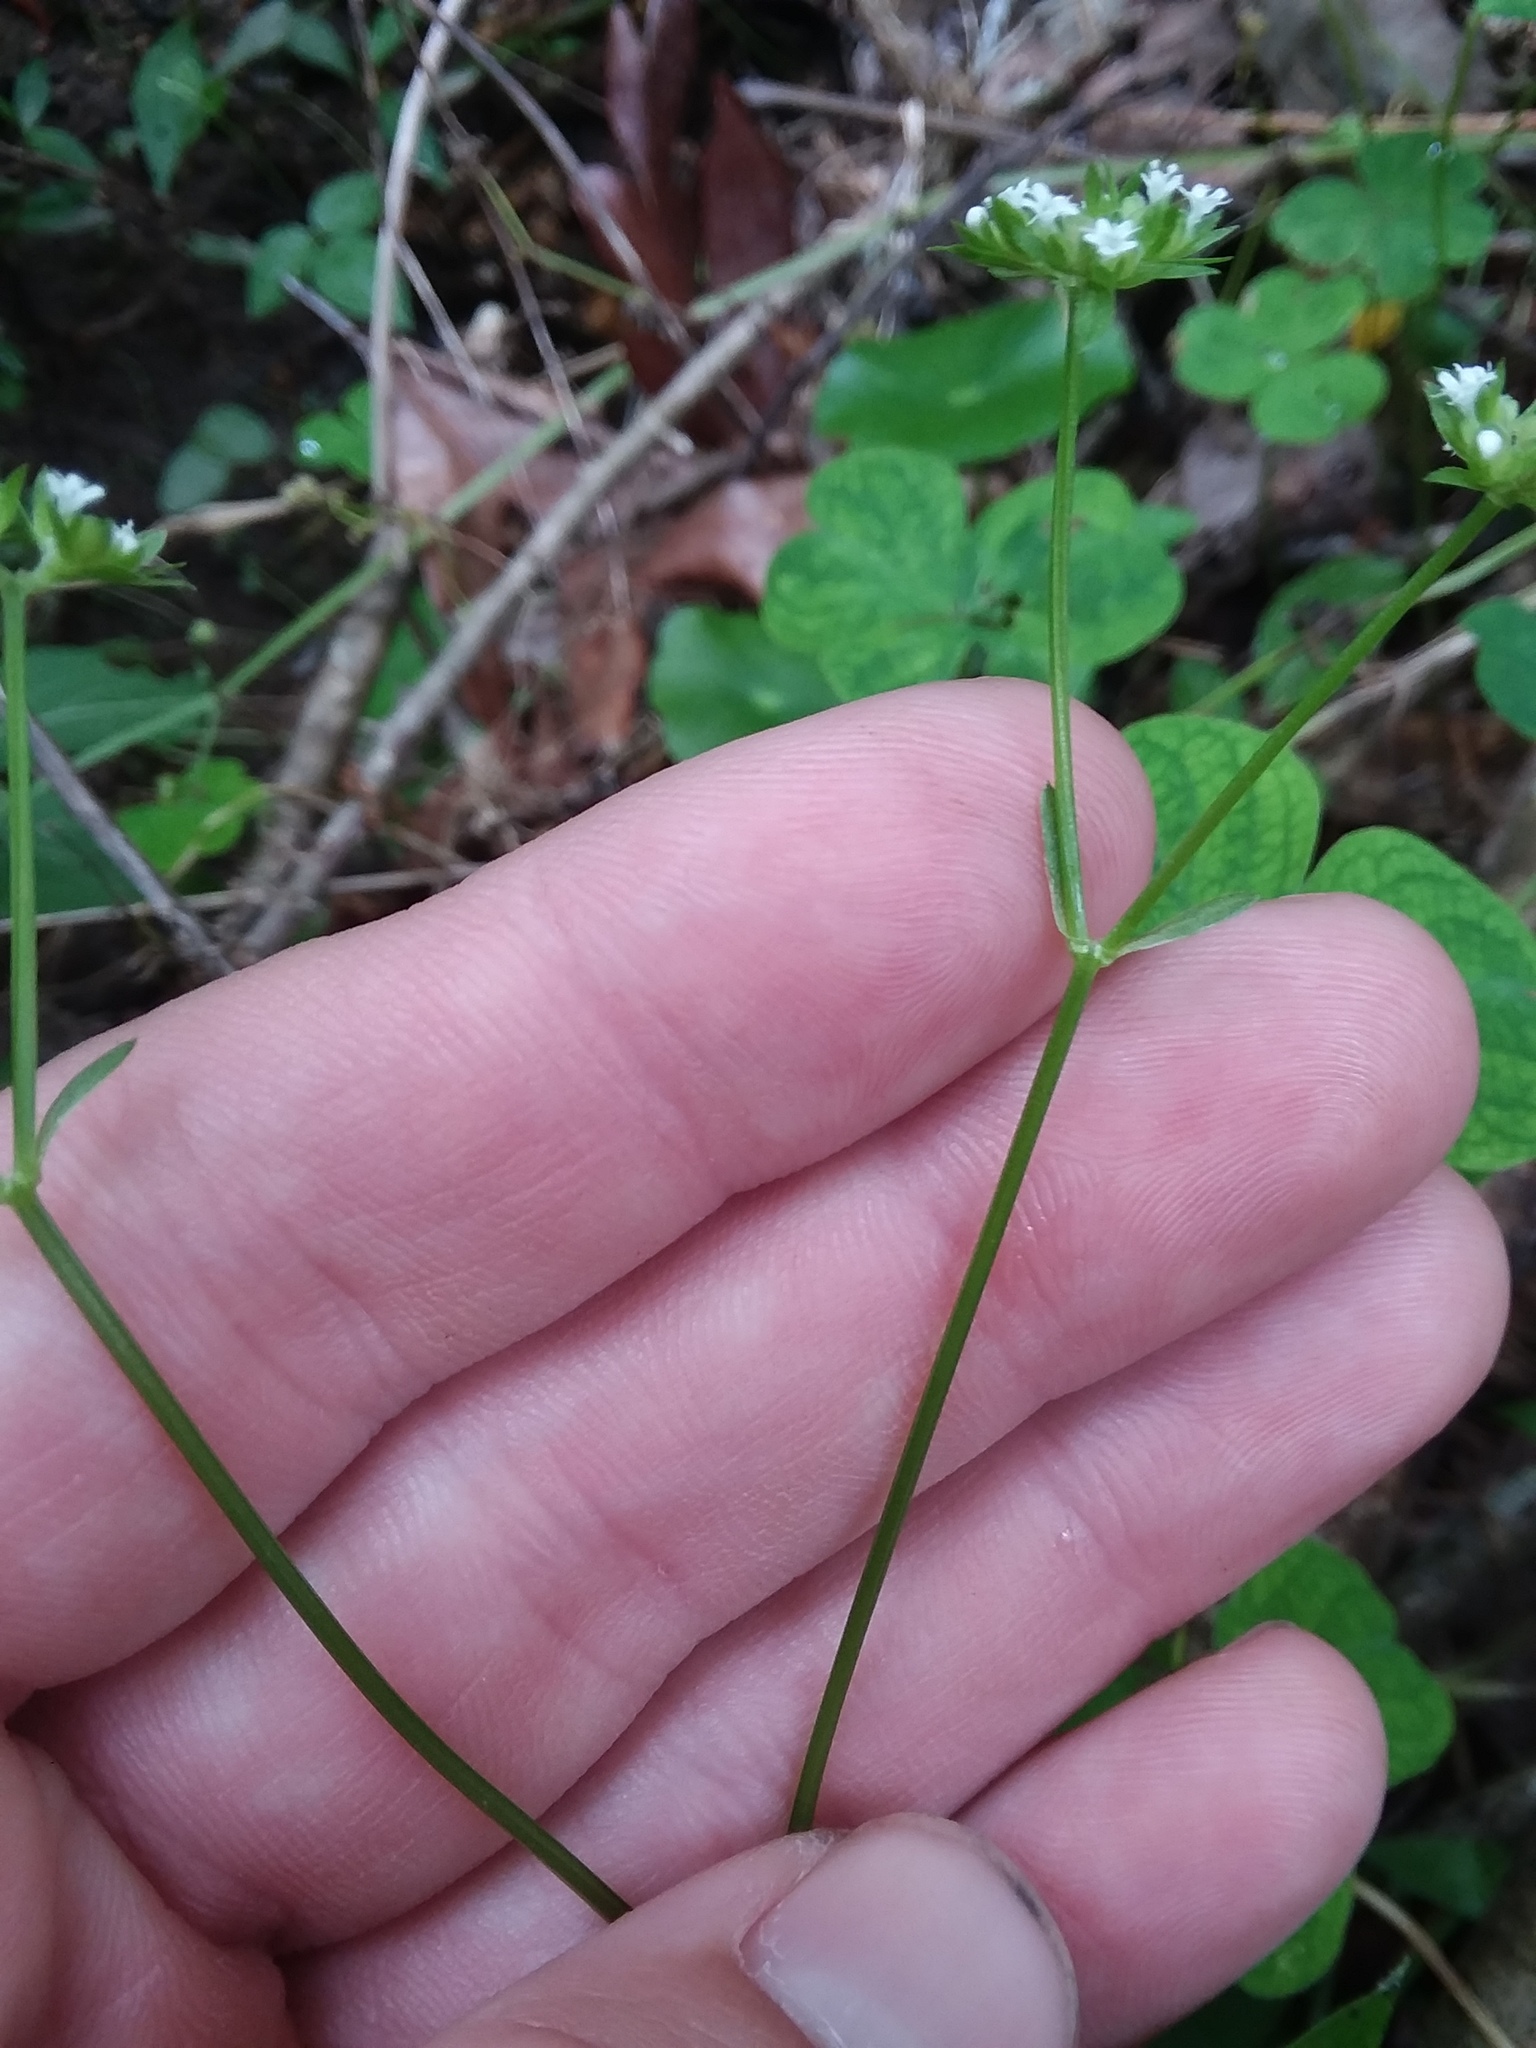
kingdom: Plantae
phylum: Tracheophyta
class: Magnoliopsida
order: Dipsacales
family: Caprifoliaceae
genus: Valerianella
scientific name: Valerianella radiata
